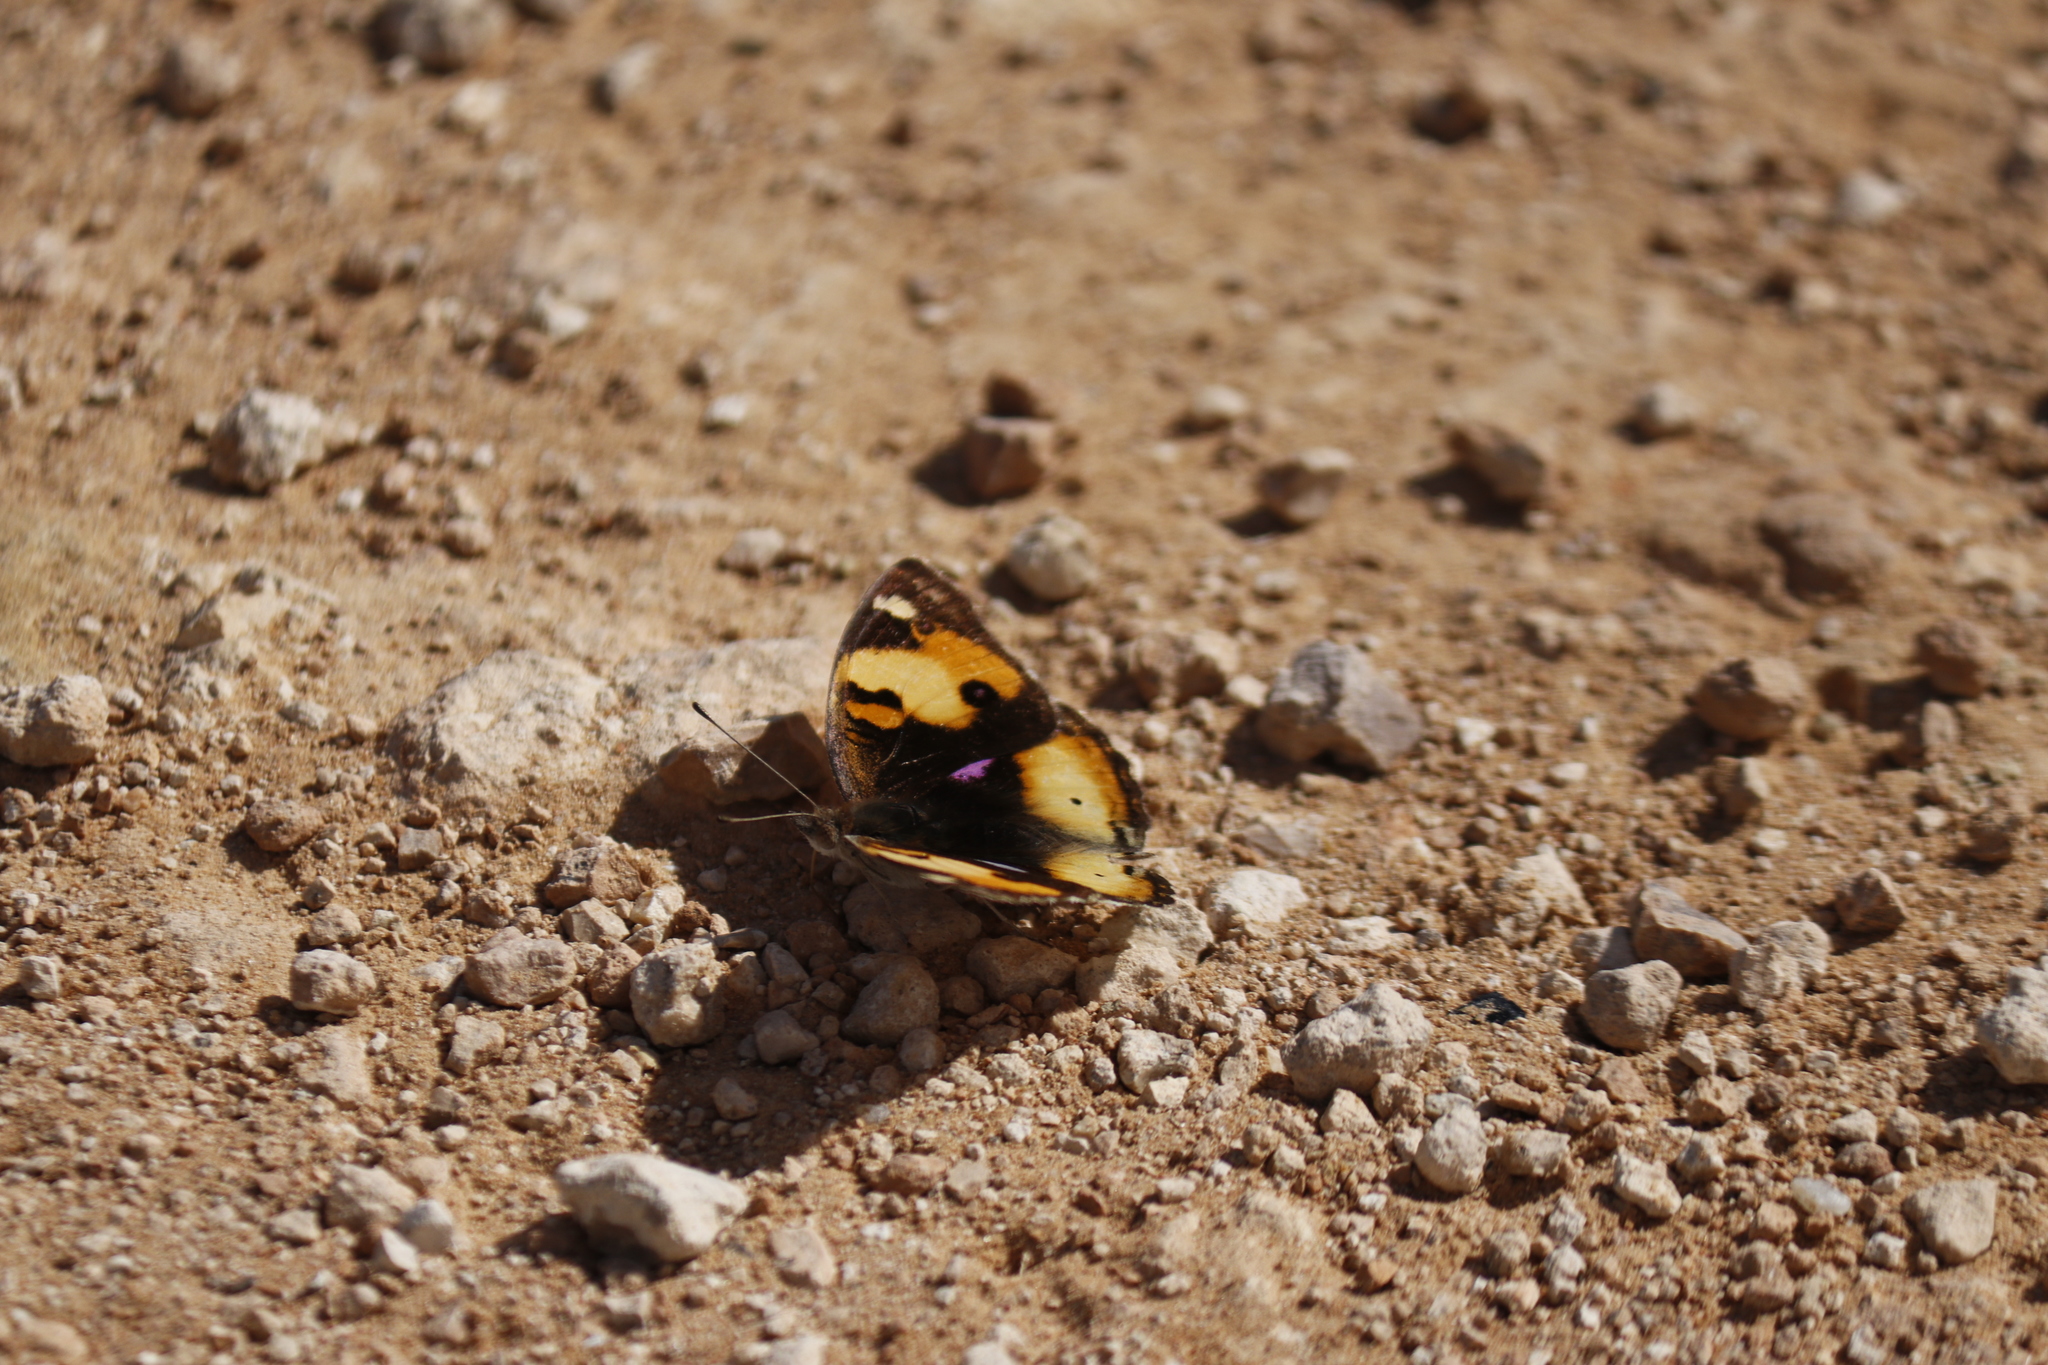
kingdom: Animalia
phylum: Arthropoda
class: Insecta
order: Lepidoptera
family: Nymphalidae
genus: Junonia
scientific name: Junonia hierta
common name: Yellow pansy
